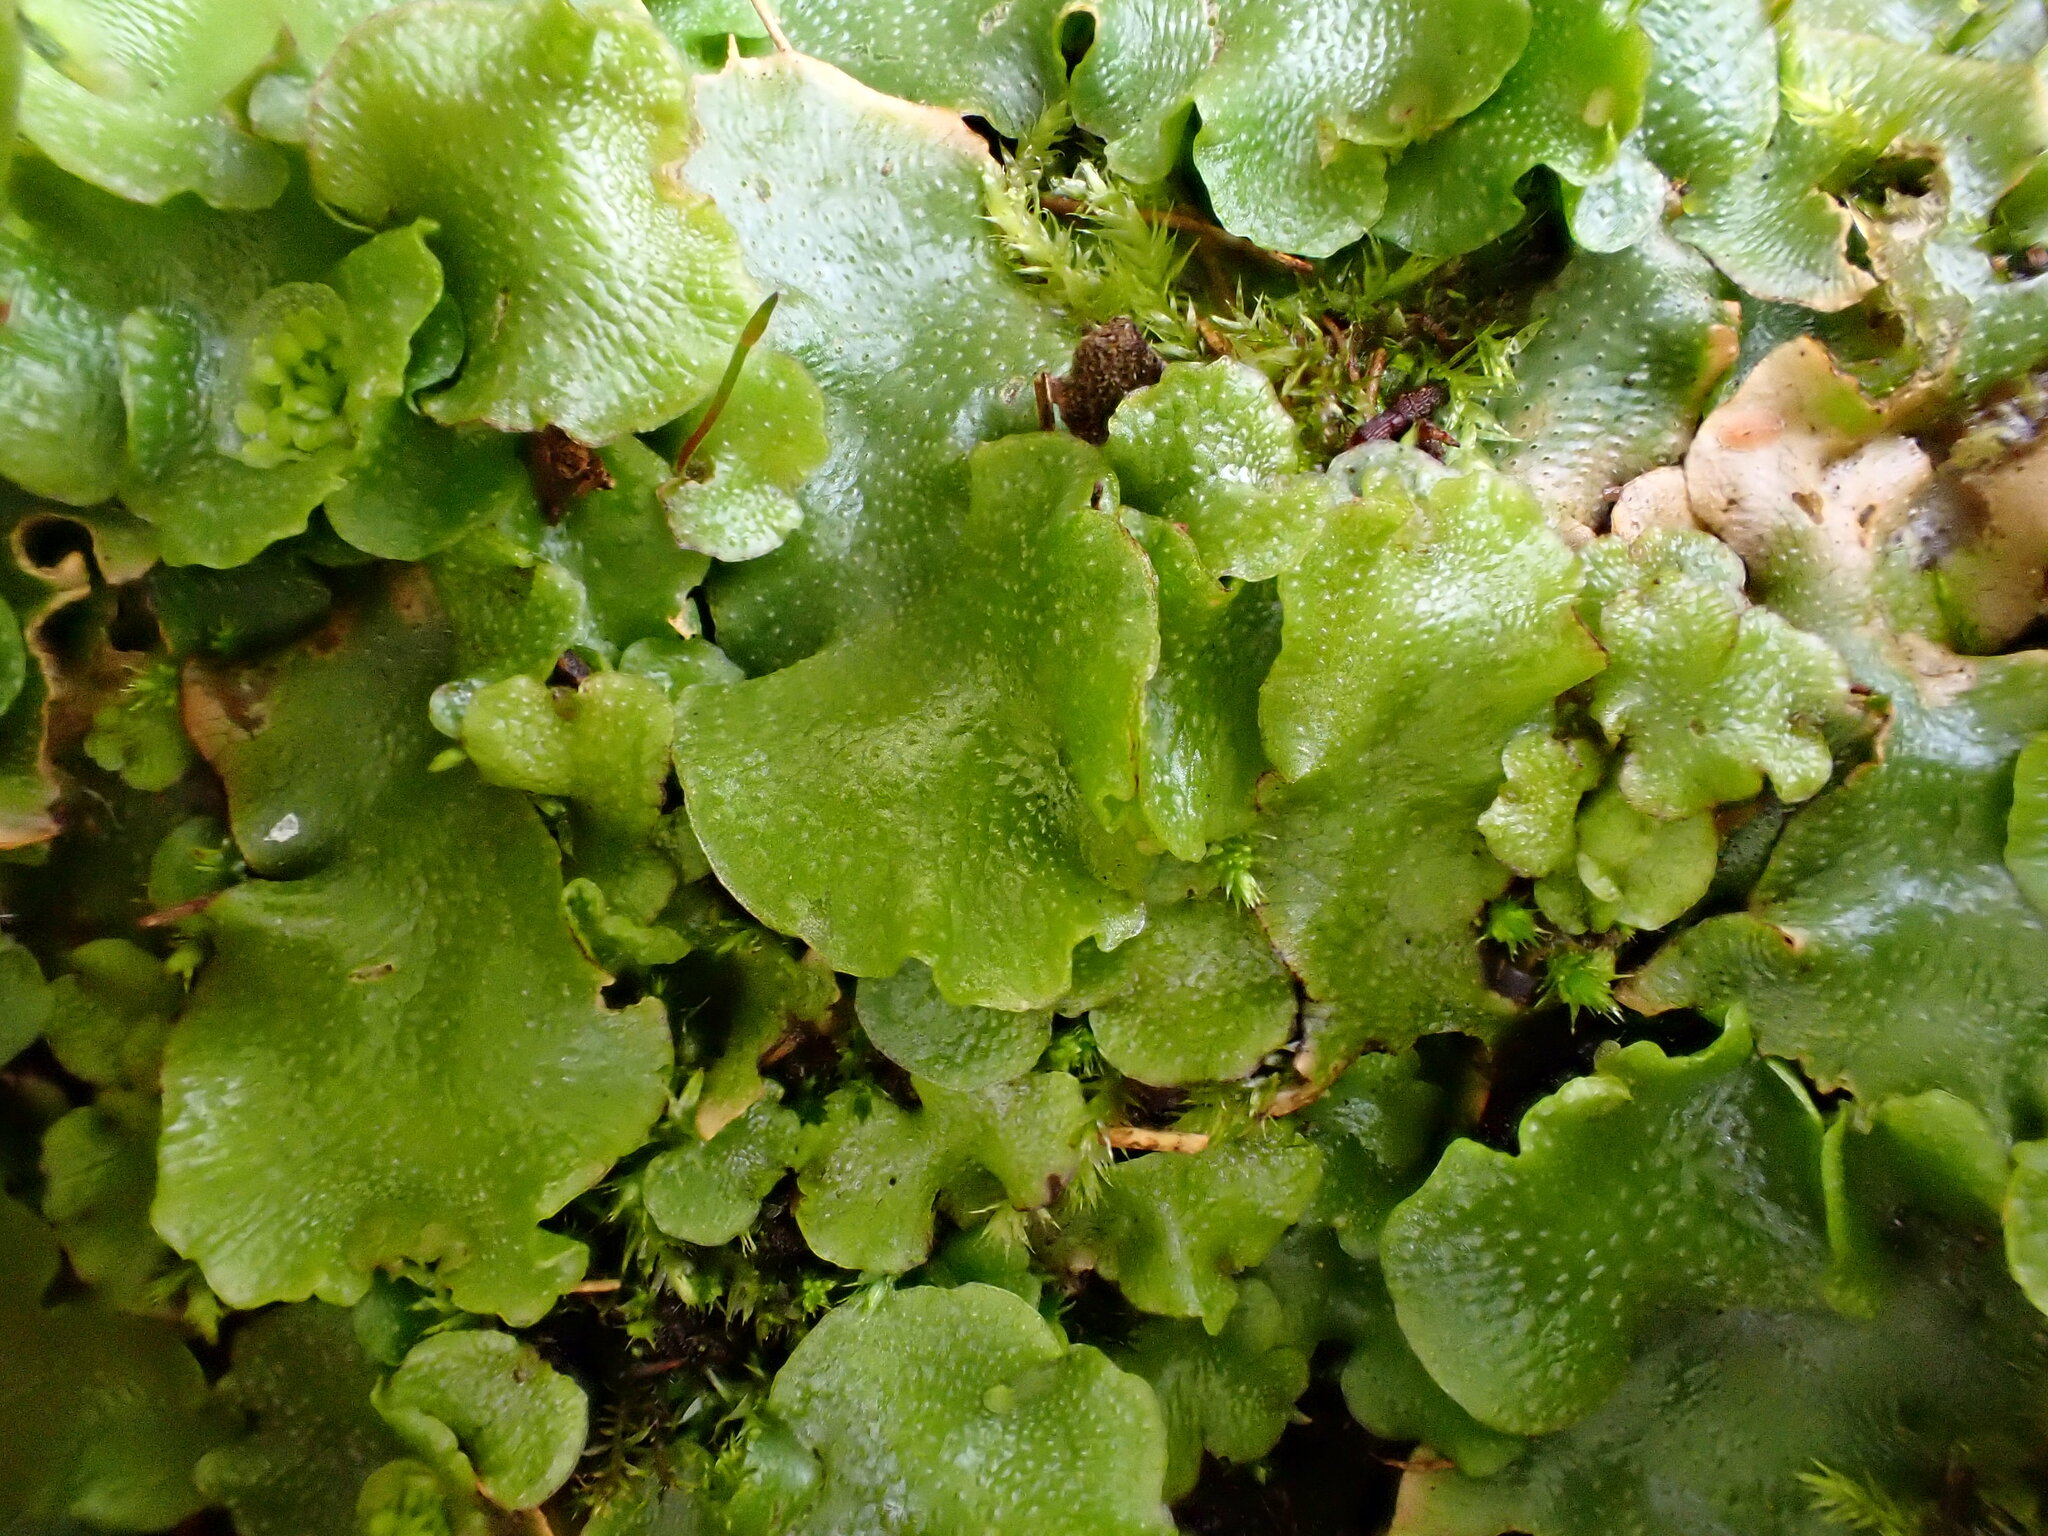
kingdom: Plantae
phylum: Marchantiophyta
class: Marchantiopsida
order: Lunulariales
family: Lunulariaceae
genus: Lunularia
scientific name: Lunularia cruciata
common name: Crescent-cup liverwort
